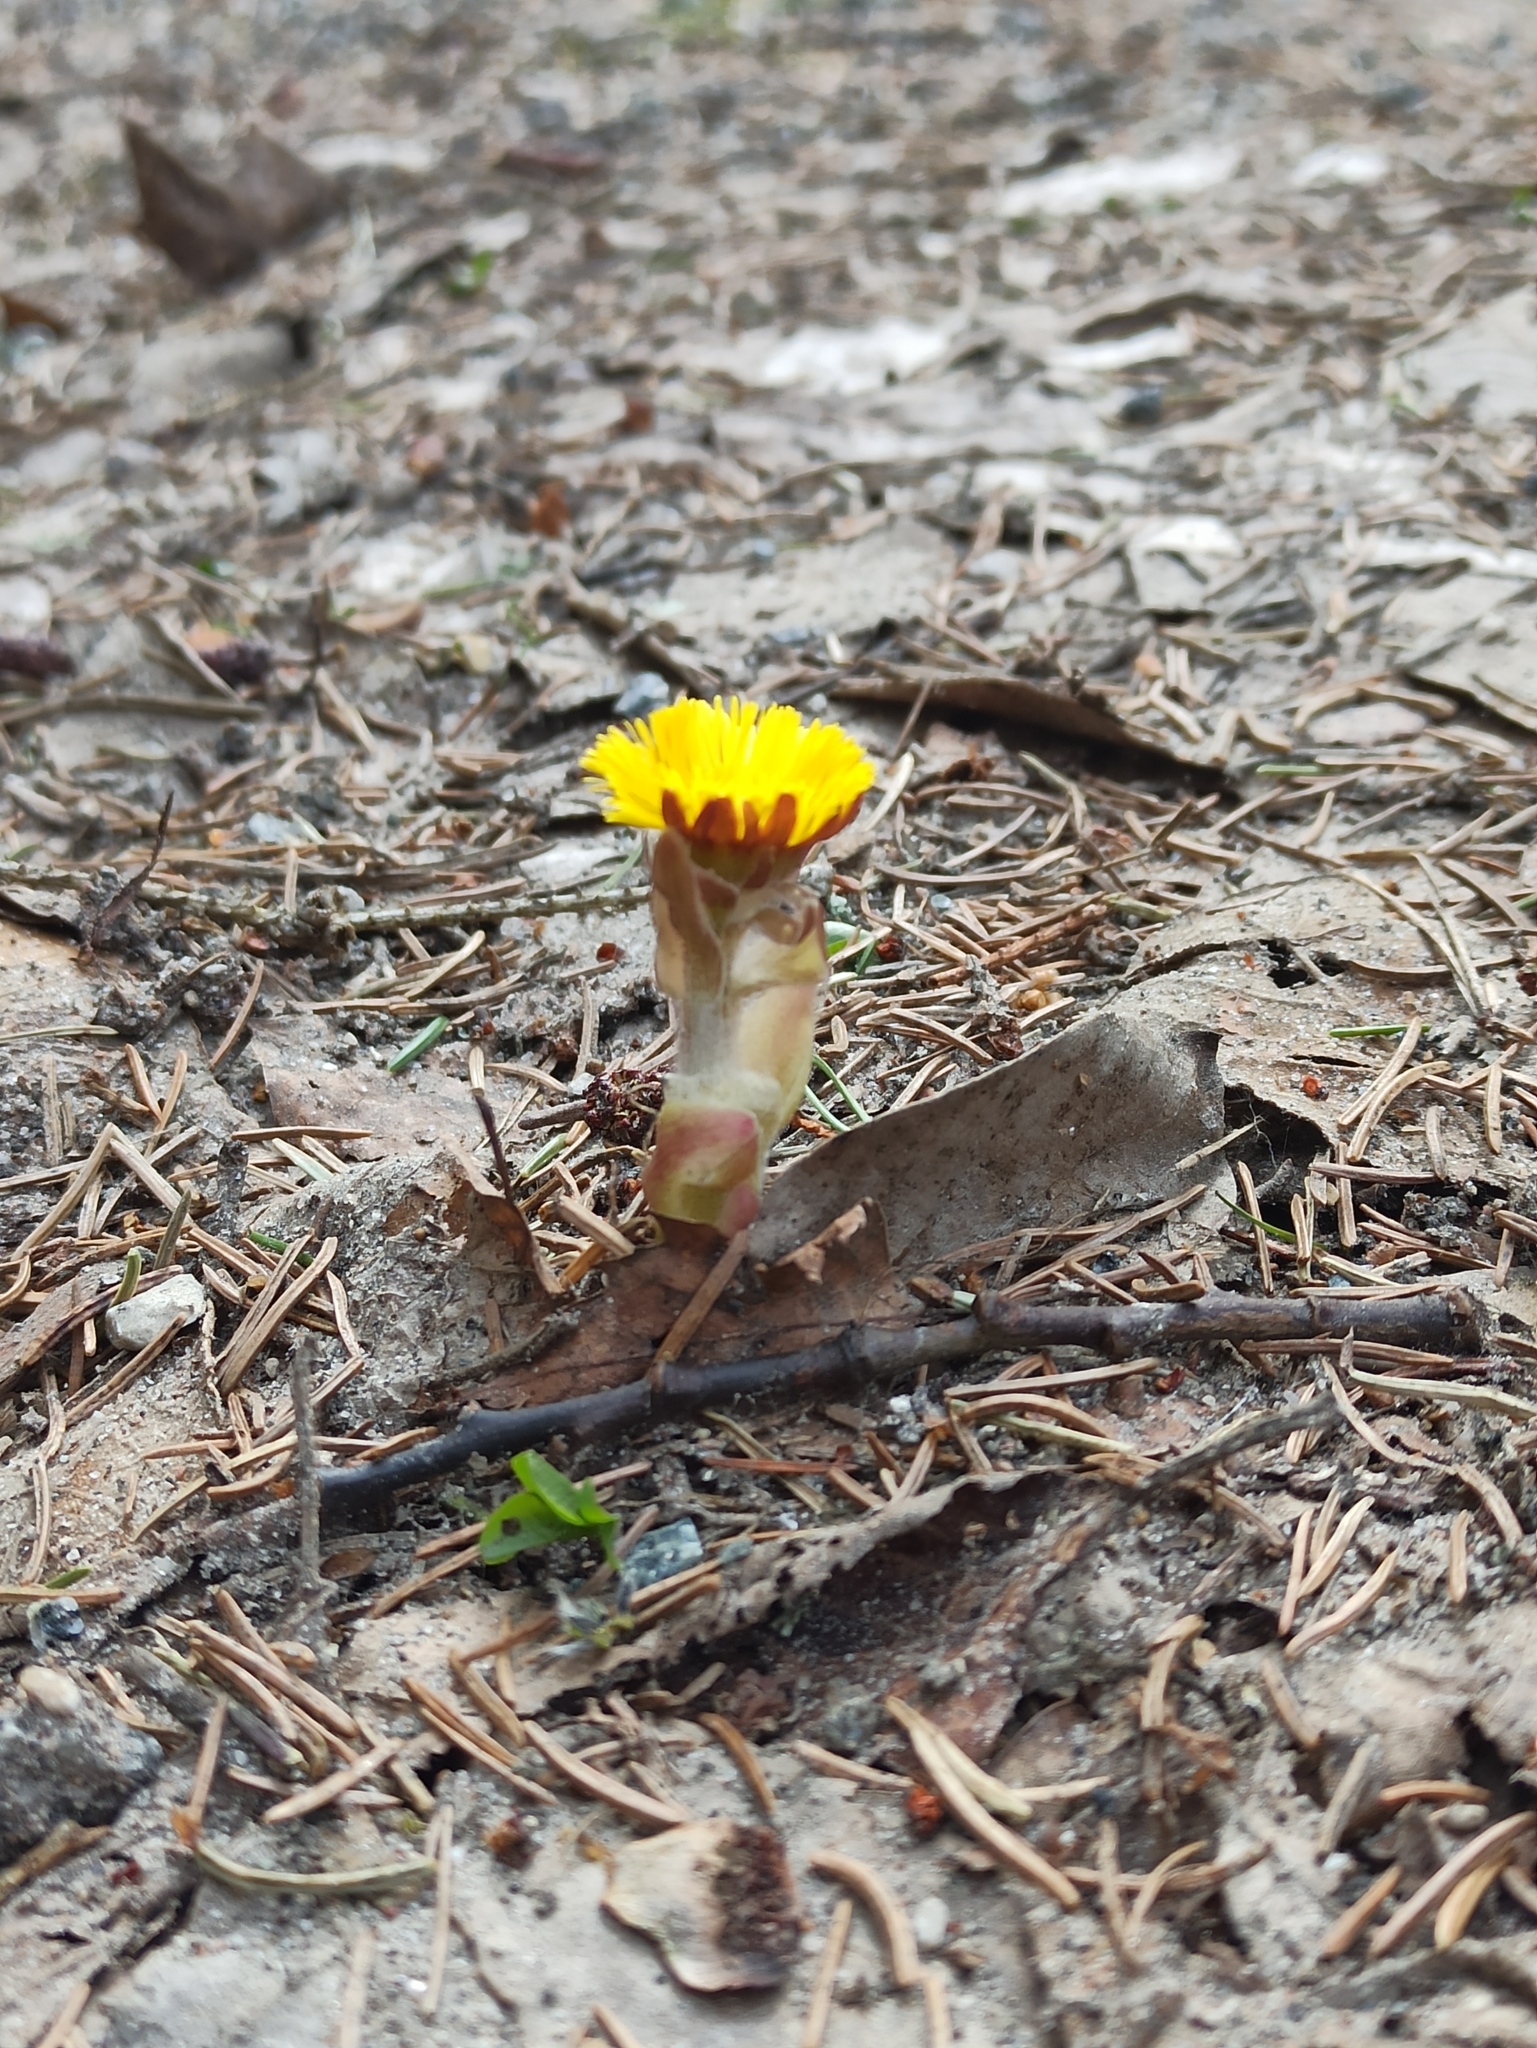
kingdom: Plantae
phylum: Tracheophyta
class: Magnoliopsida
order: Asterales
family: Asteraceae
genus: Tussilago
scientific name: Tussilago farfara
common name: Coltsfoot
